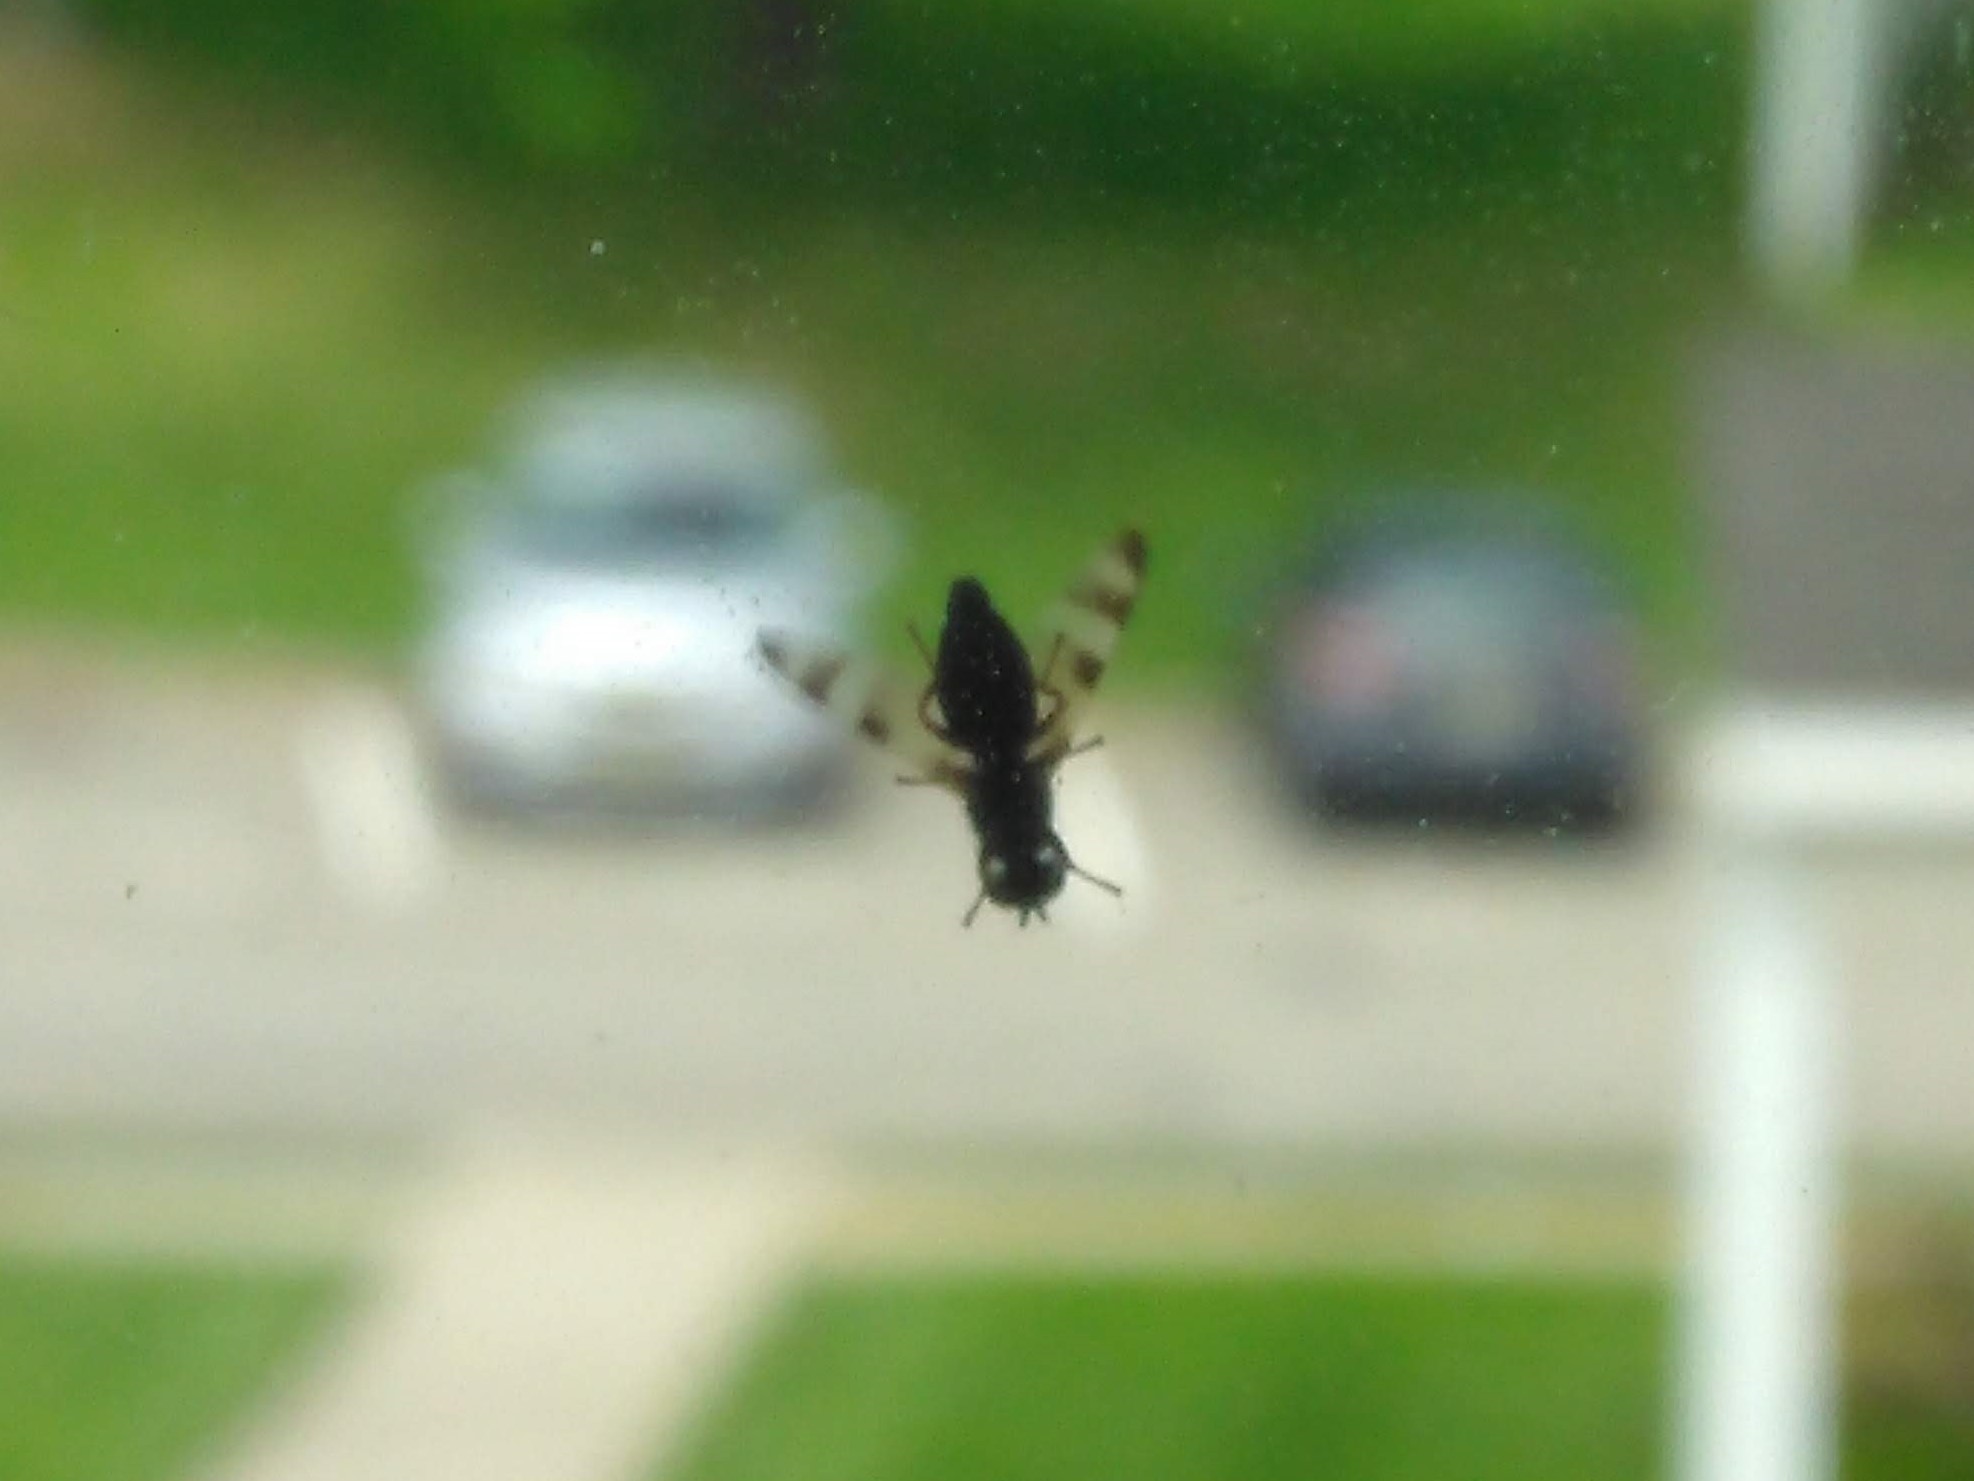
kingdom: Animalia
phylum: Arthropoda
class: Insecta
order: Diptera
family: Ulidiidae
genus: Chaetopsis
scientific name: Chaetopsis
